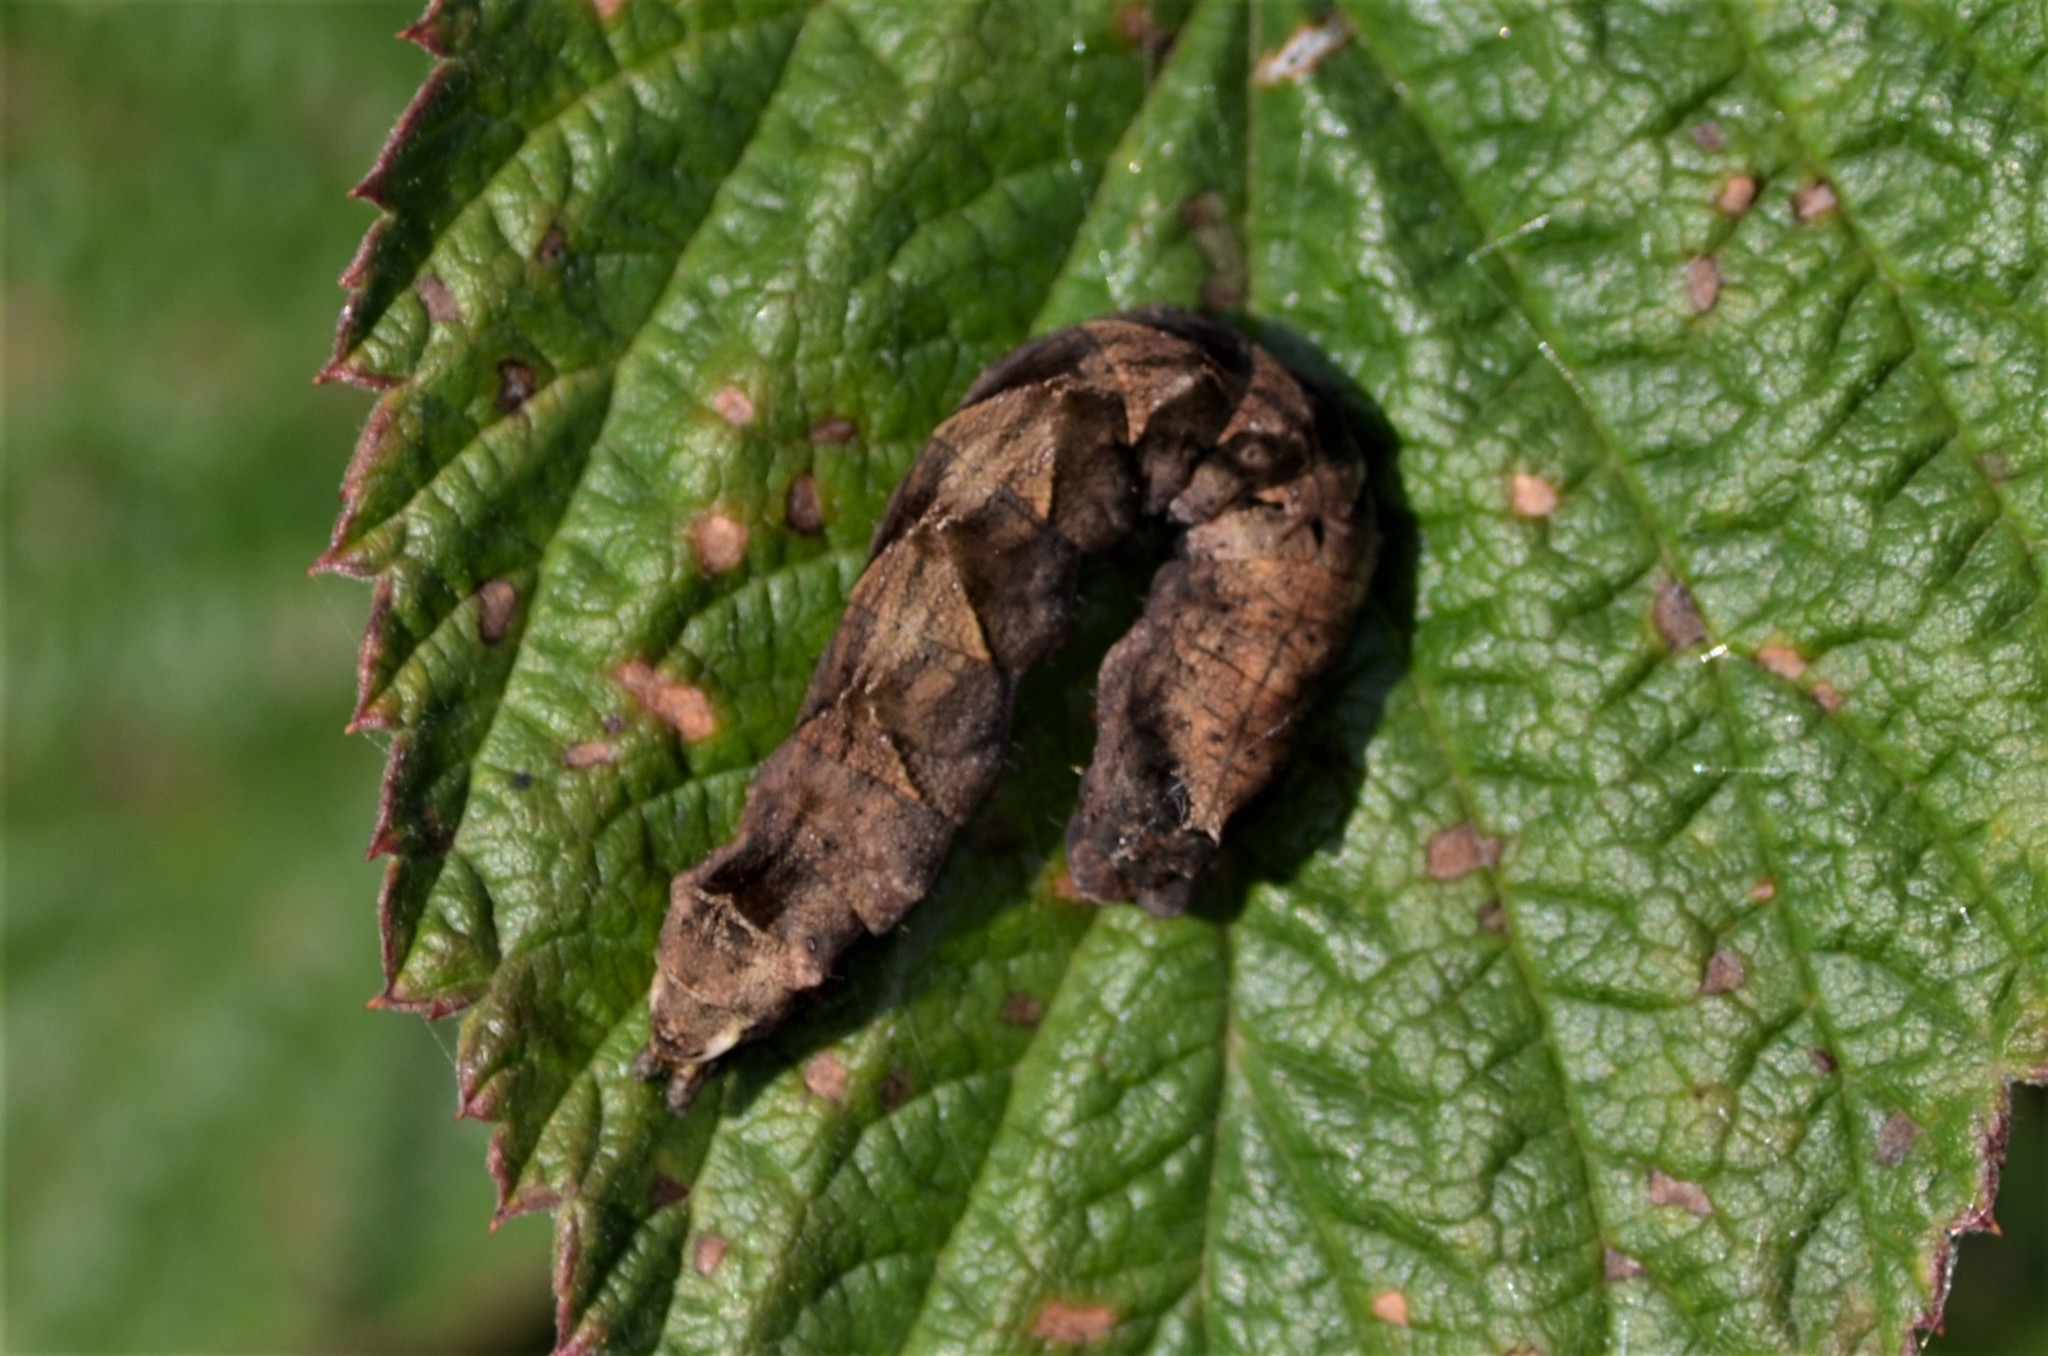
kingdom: Animalia
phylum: Arthropoda
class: Insecta
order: Lepidoptera
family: Drepanidae
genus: Thyatira
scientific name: Thyatira batis
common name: Peach blossom
